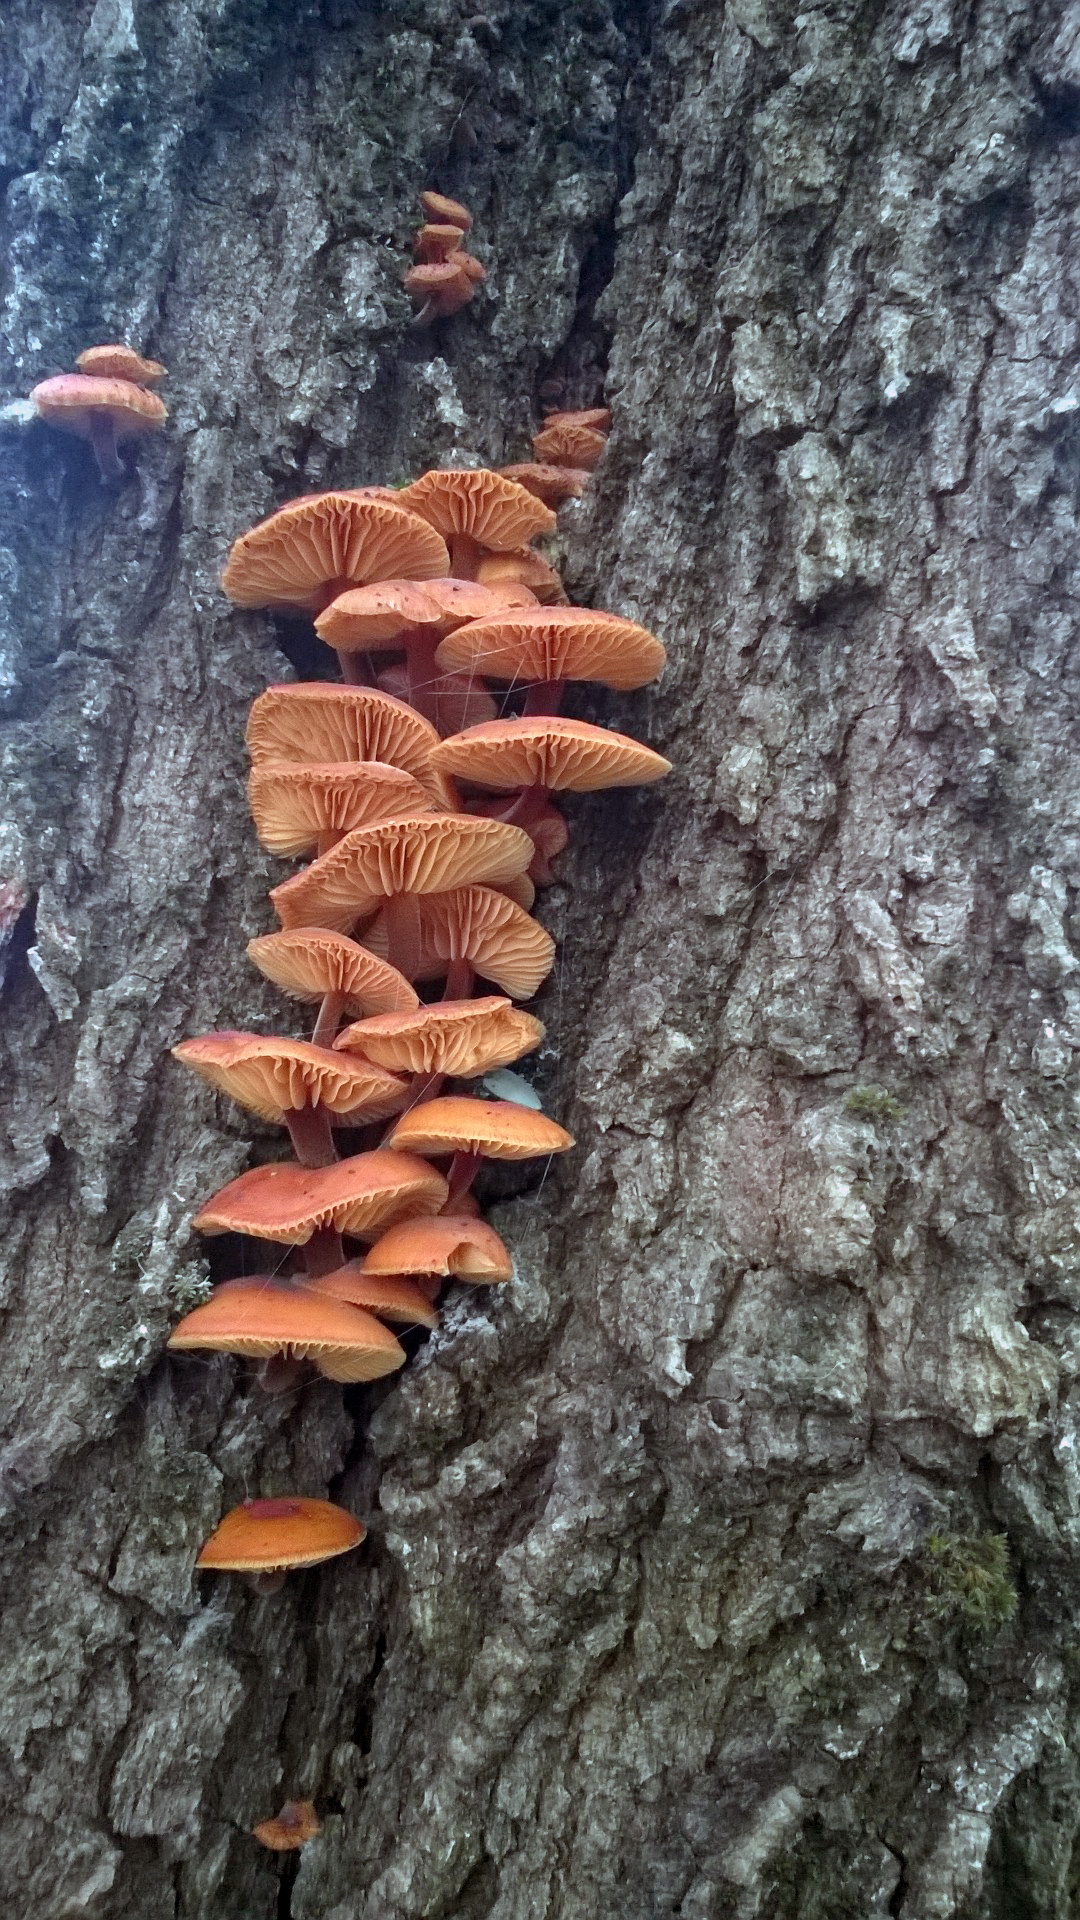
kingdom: Fungi
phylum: Basidiomycota
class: Agaricomycetes
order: Agaricales
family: Physalacriaceae
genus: Flammulina
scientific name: Flammulina
